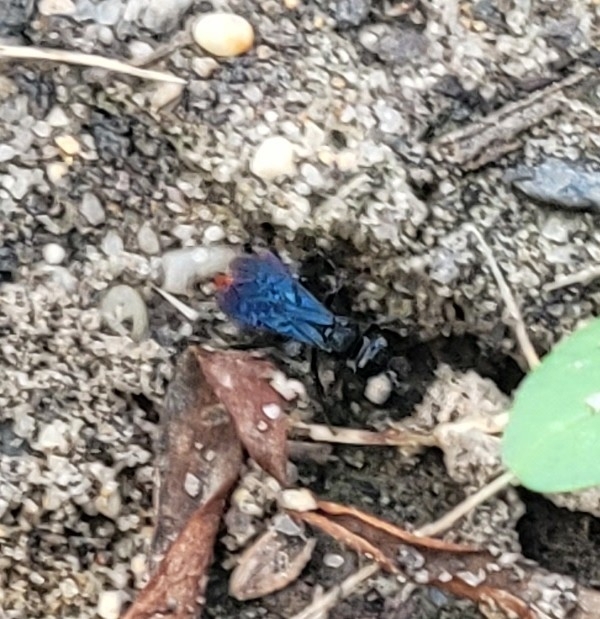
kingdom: Animalia
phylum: Arthropoda
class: Insecta
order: Hymenoptera
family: Crabronidae
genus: Larra
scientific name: Larra analis
